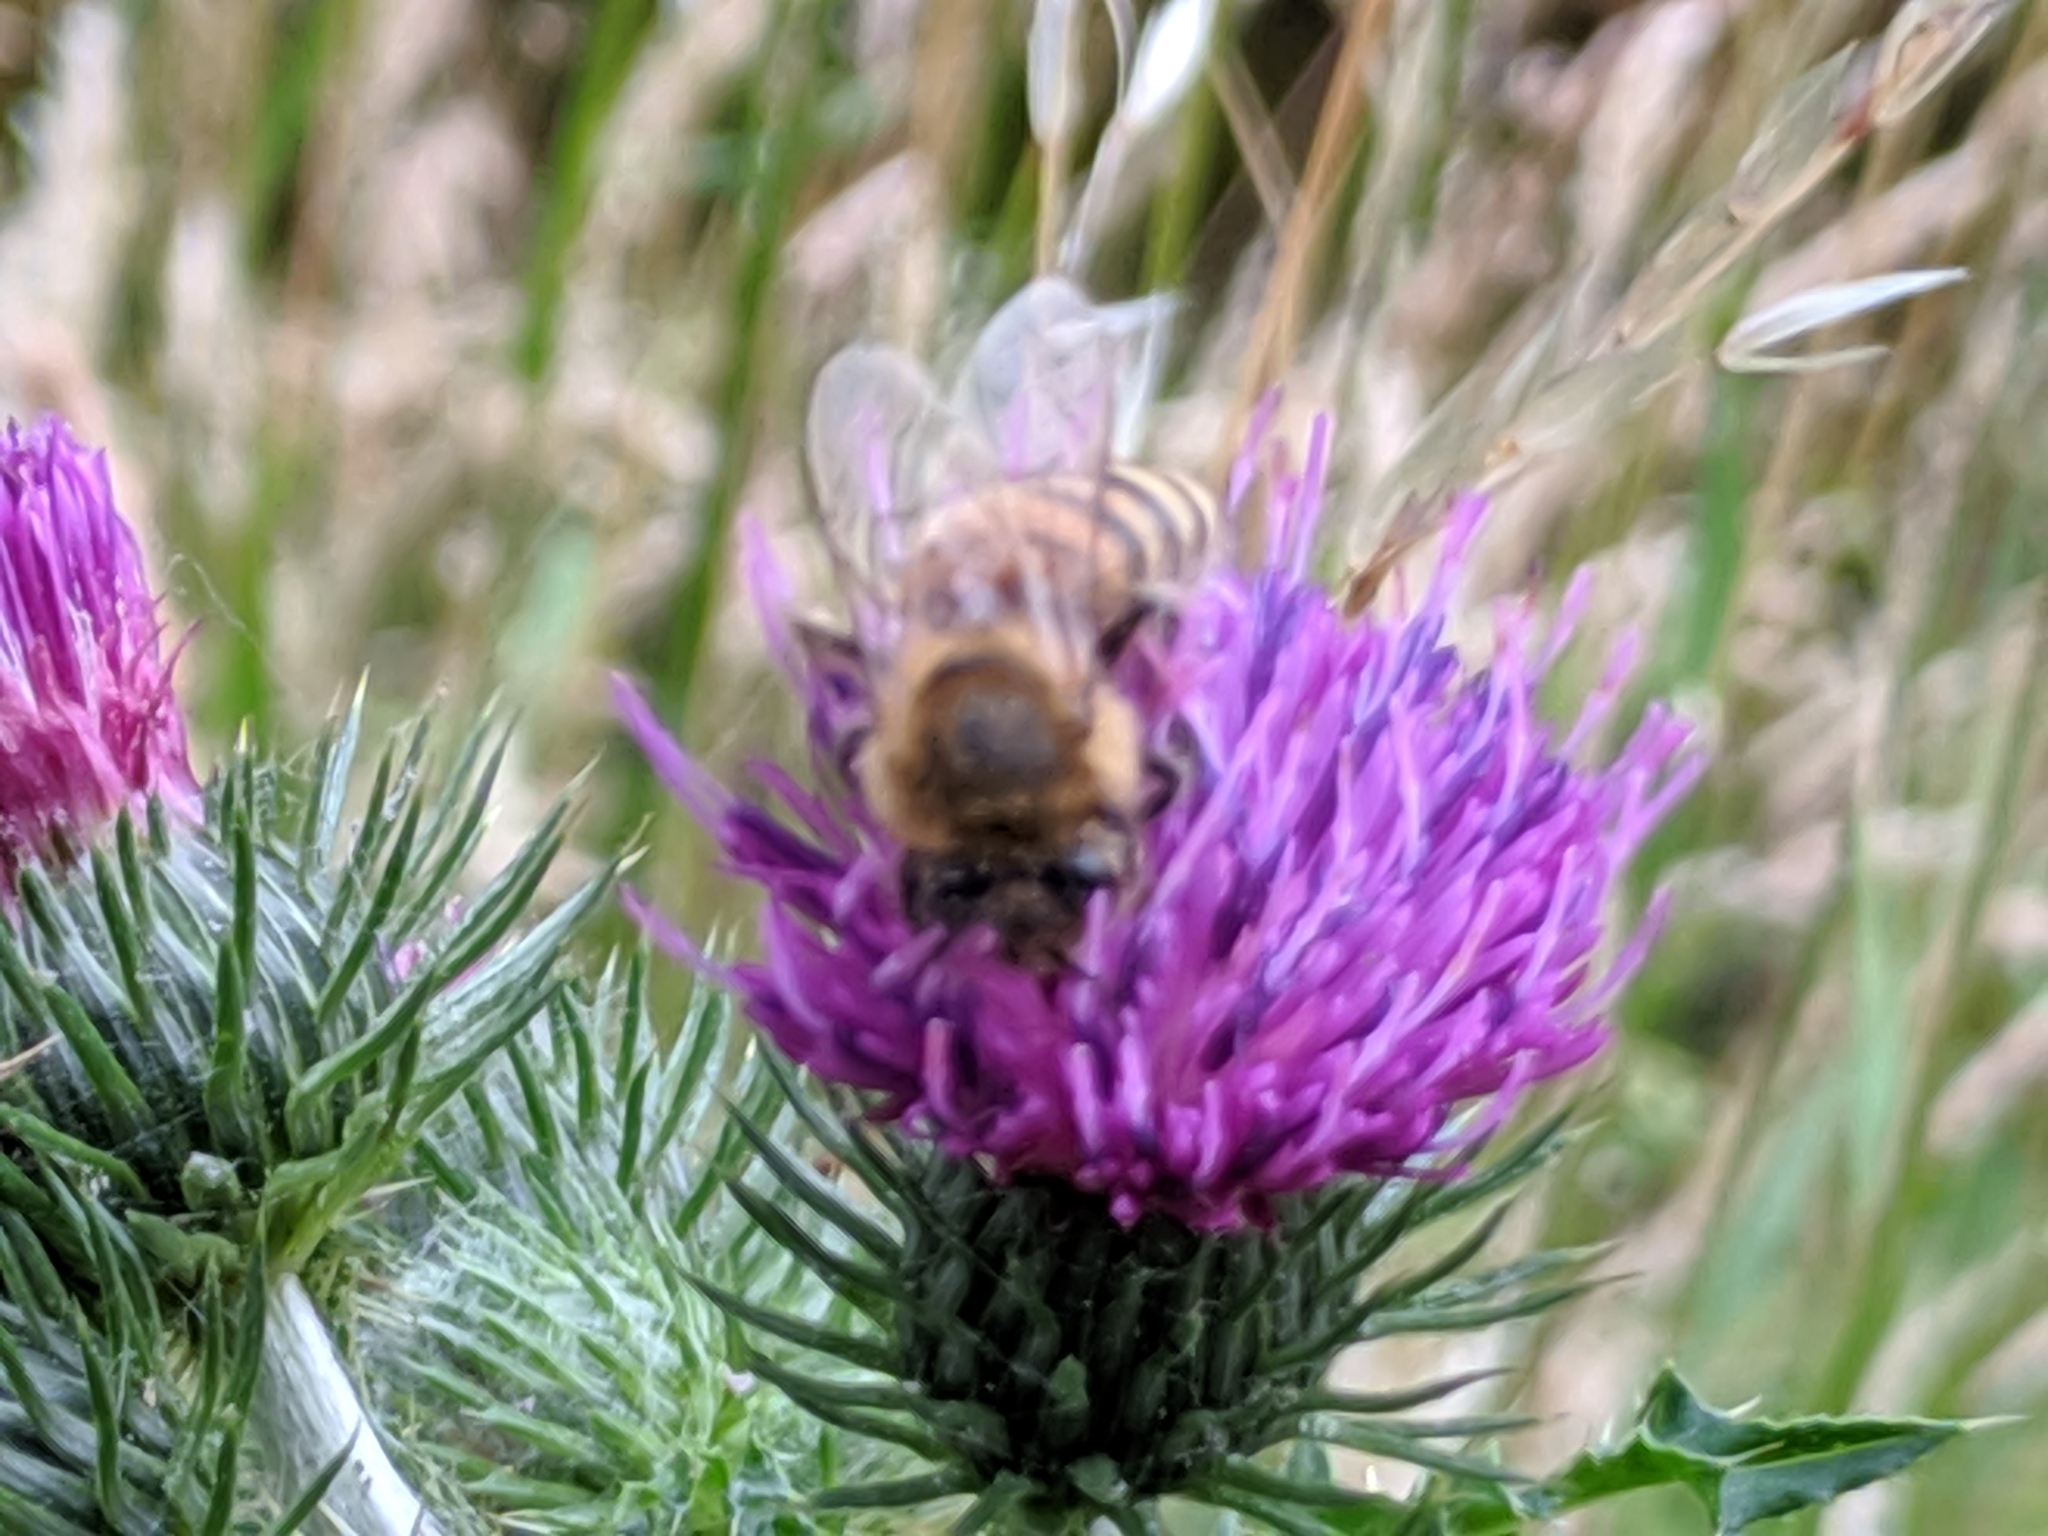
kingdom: Animalia
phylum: Arthropoda
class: Insecta
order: Hymenoptera
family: Apidae
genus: Apis
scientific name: Apis mellifera
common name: Honey bee
